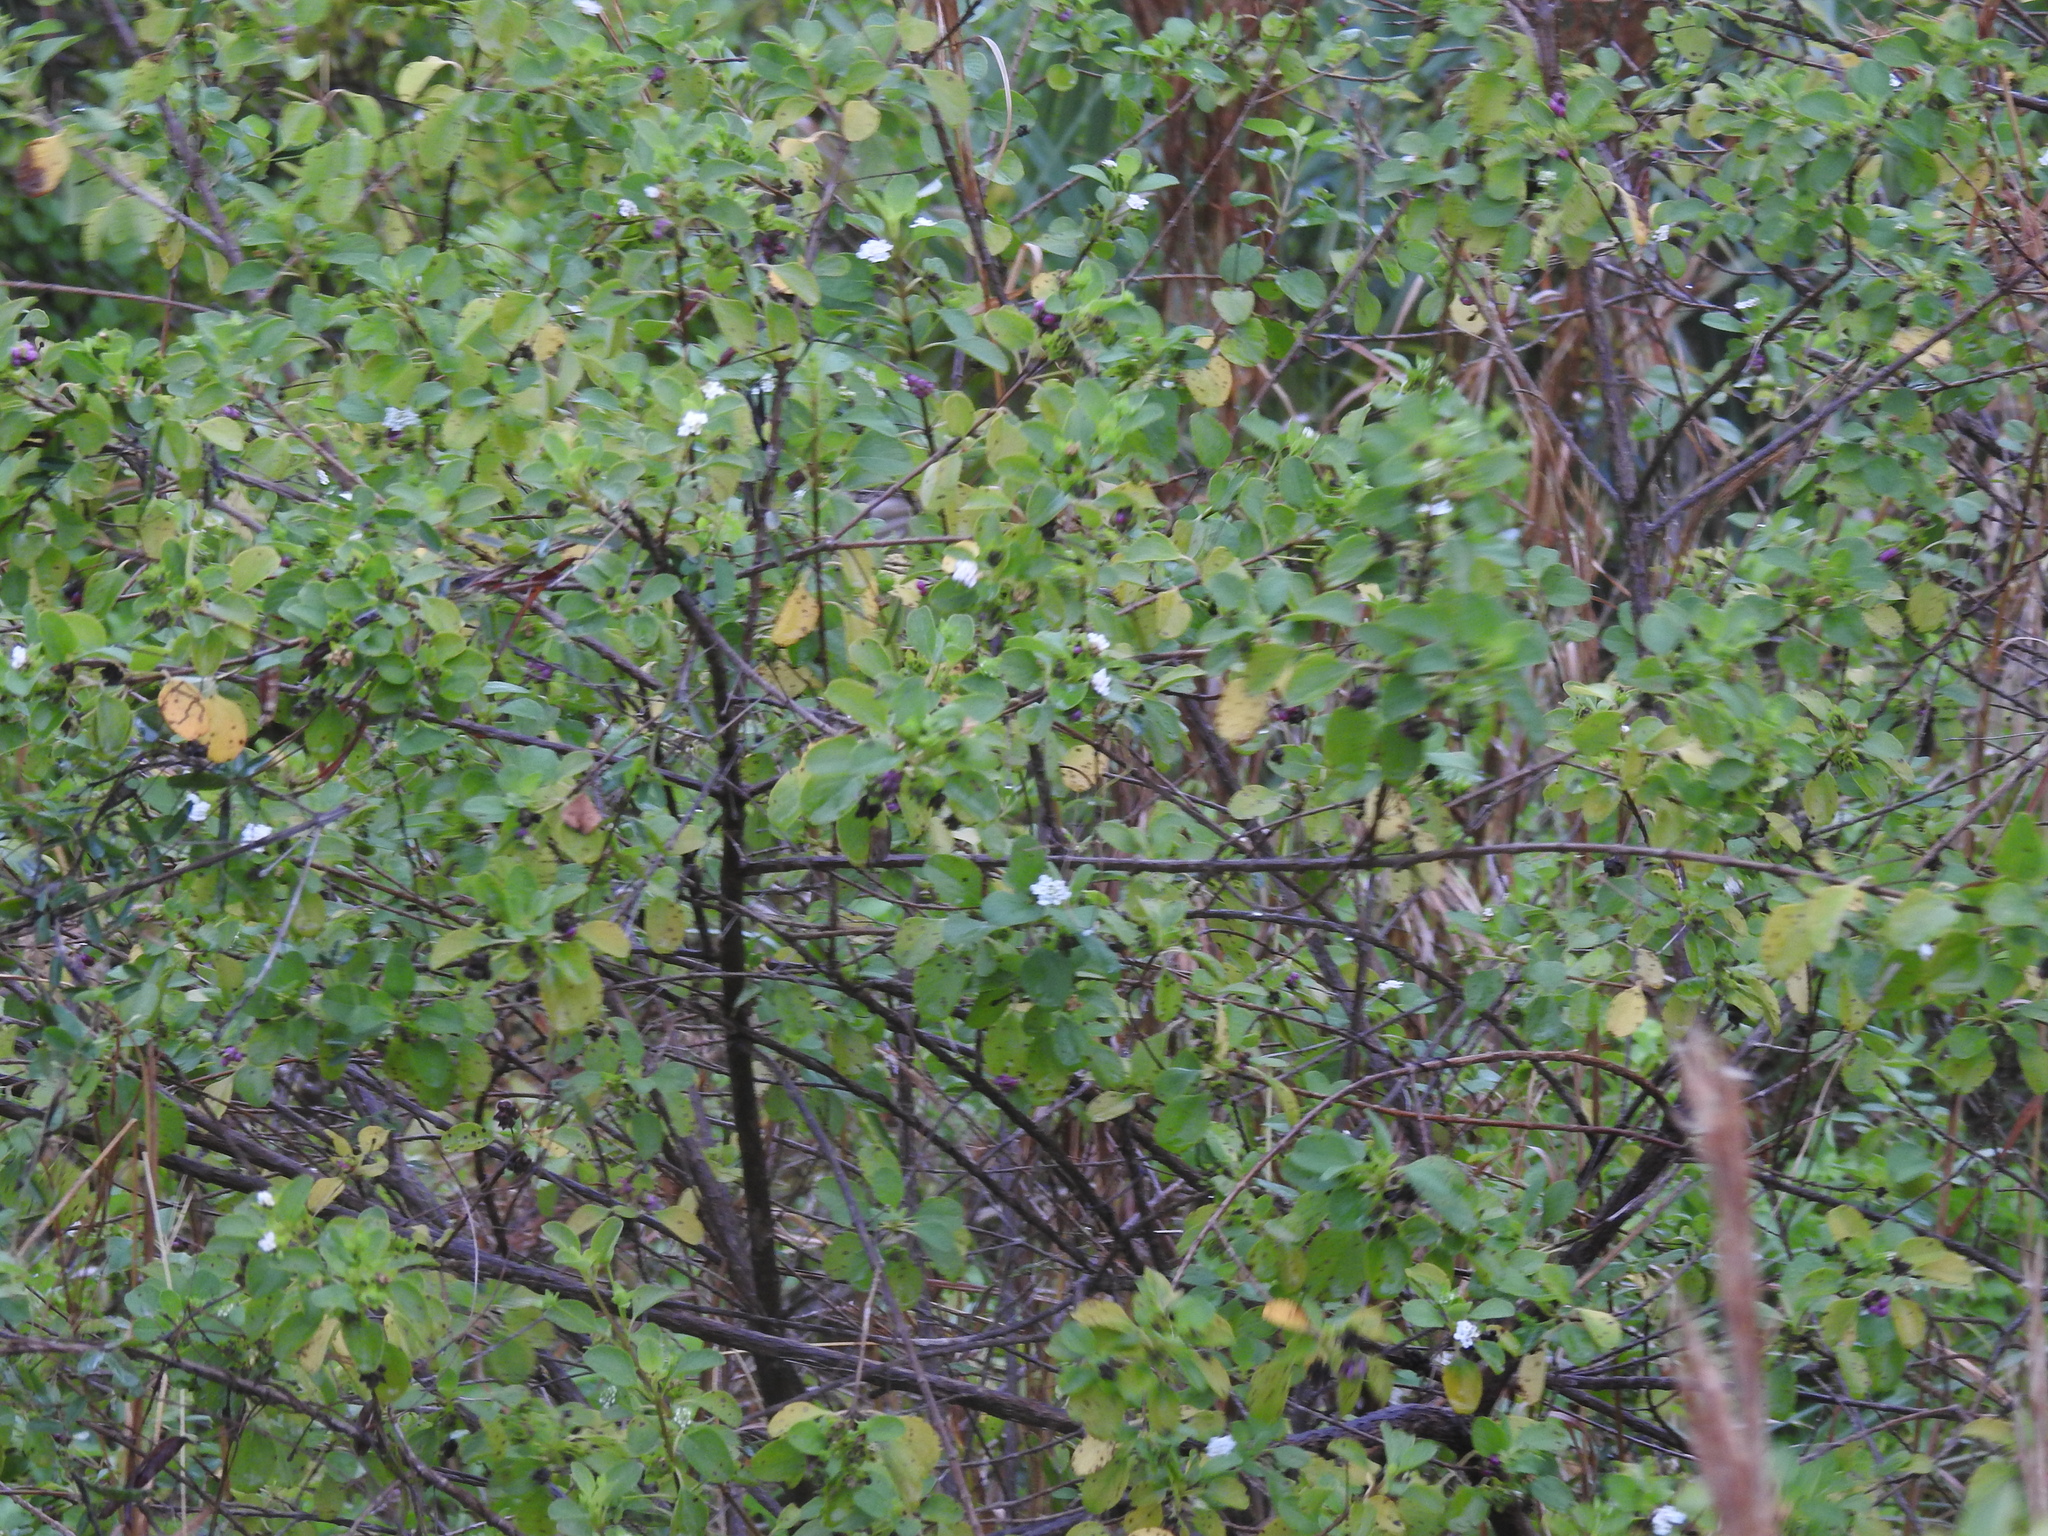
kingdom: Plantae
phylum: Tracheophyta
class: Magnoliopsida
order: Lamiales
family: Verbenaceae
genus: Lantana
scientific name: Lantana involucrata
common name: Black sage
